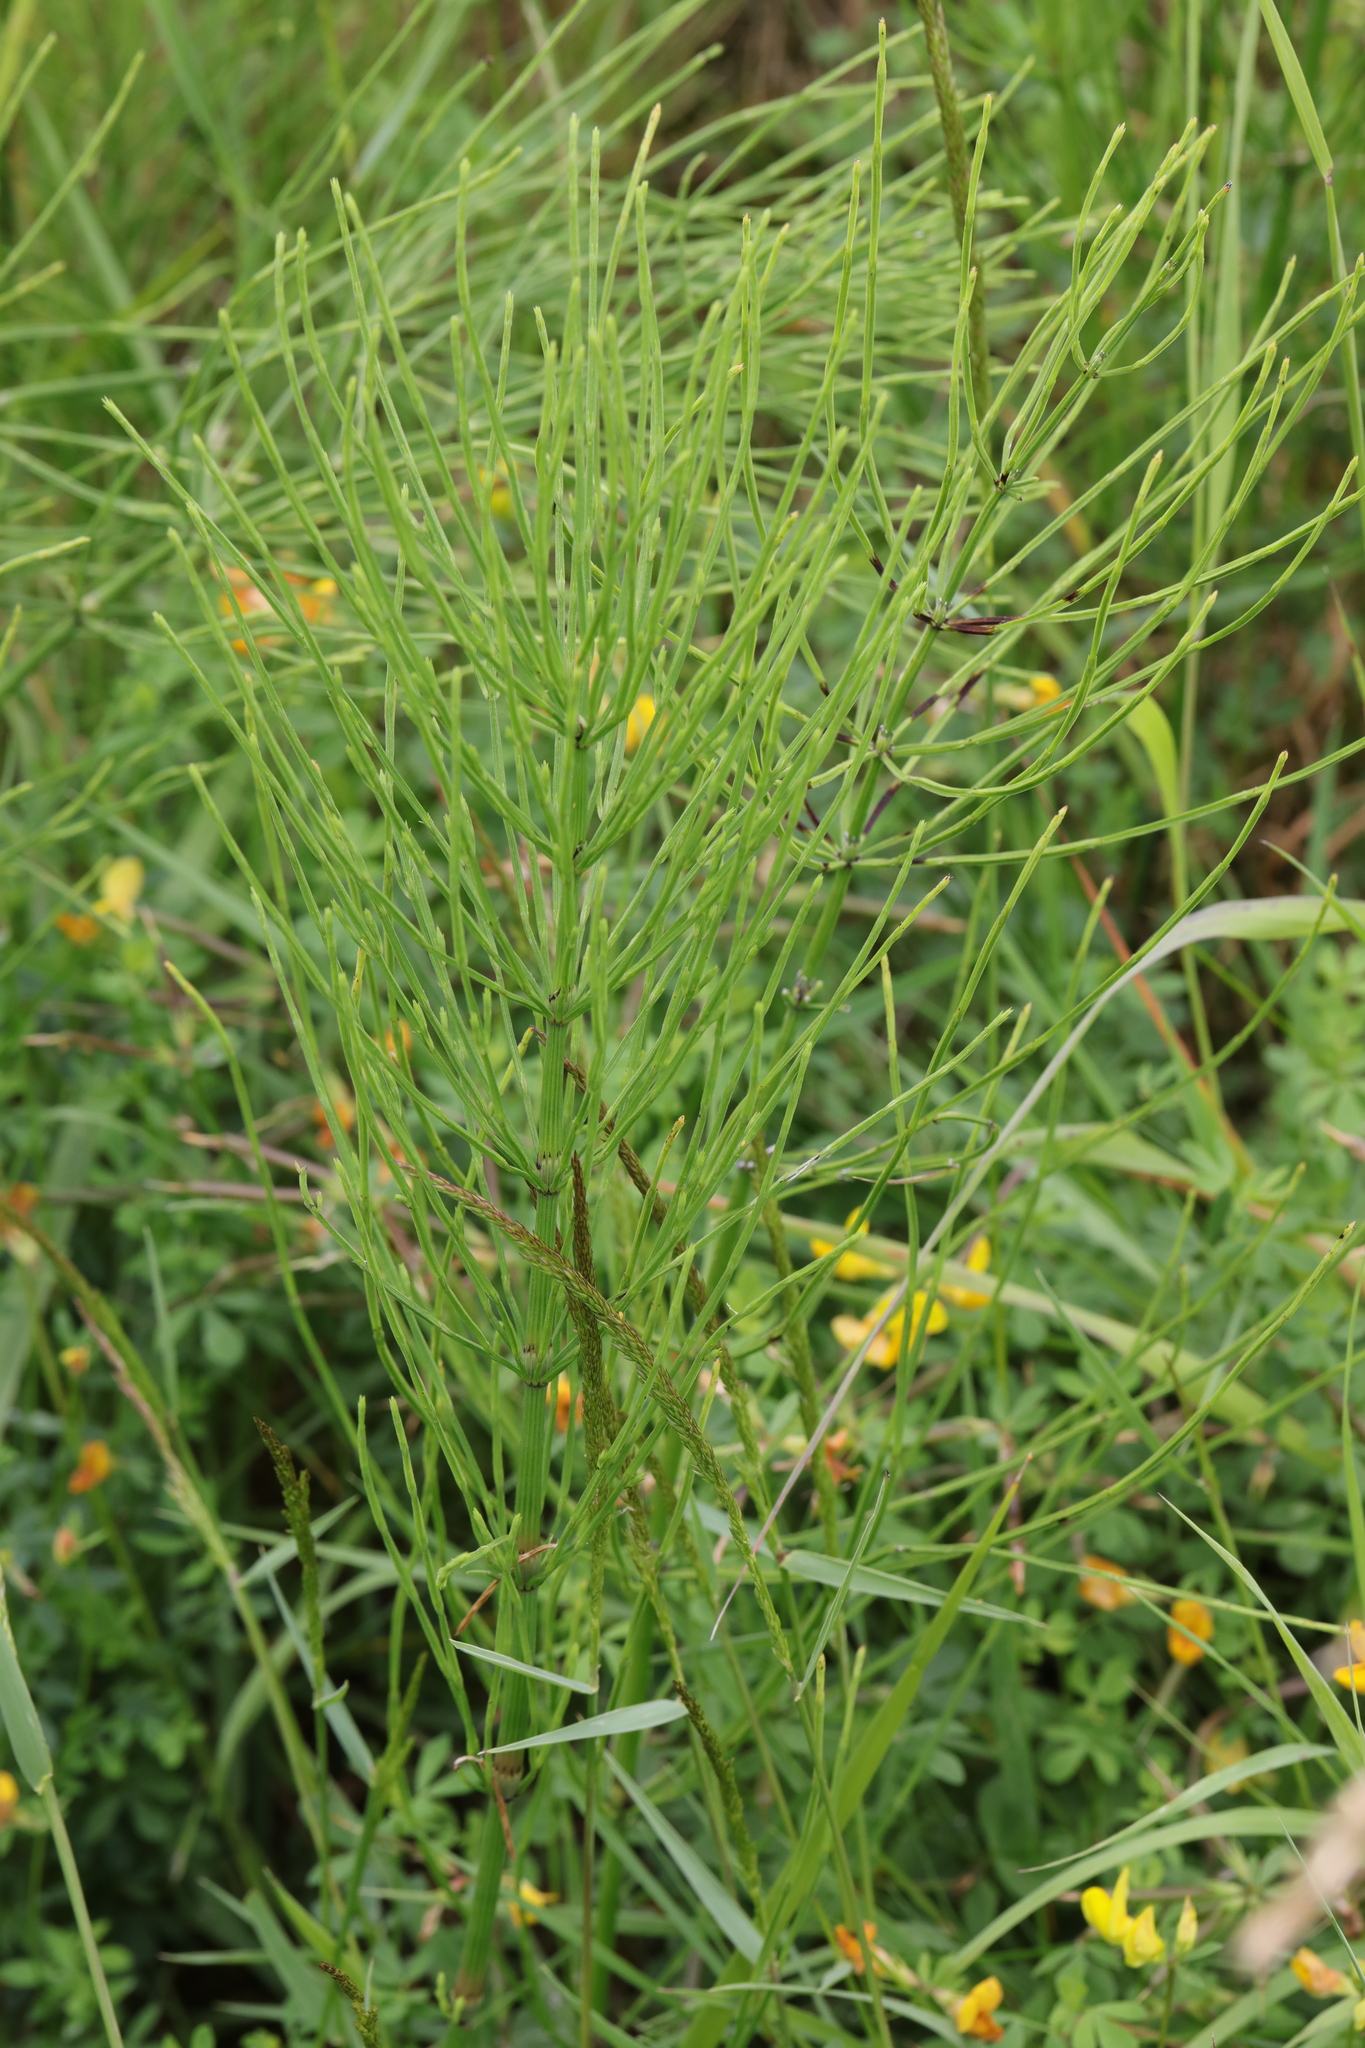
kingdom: Plantae
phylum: Tracheophyta
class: Polypodiopsida
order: Equisetales
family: Equisetaceae
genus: Equisetum
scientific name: Equisetum arvense
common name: Field horsetail
